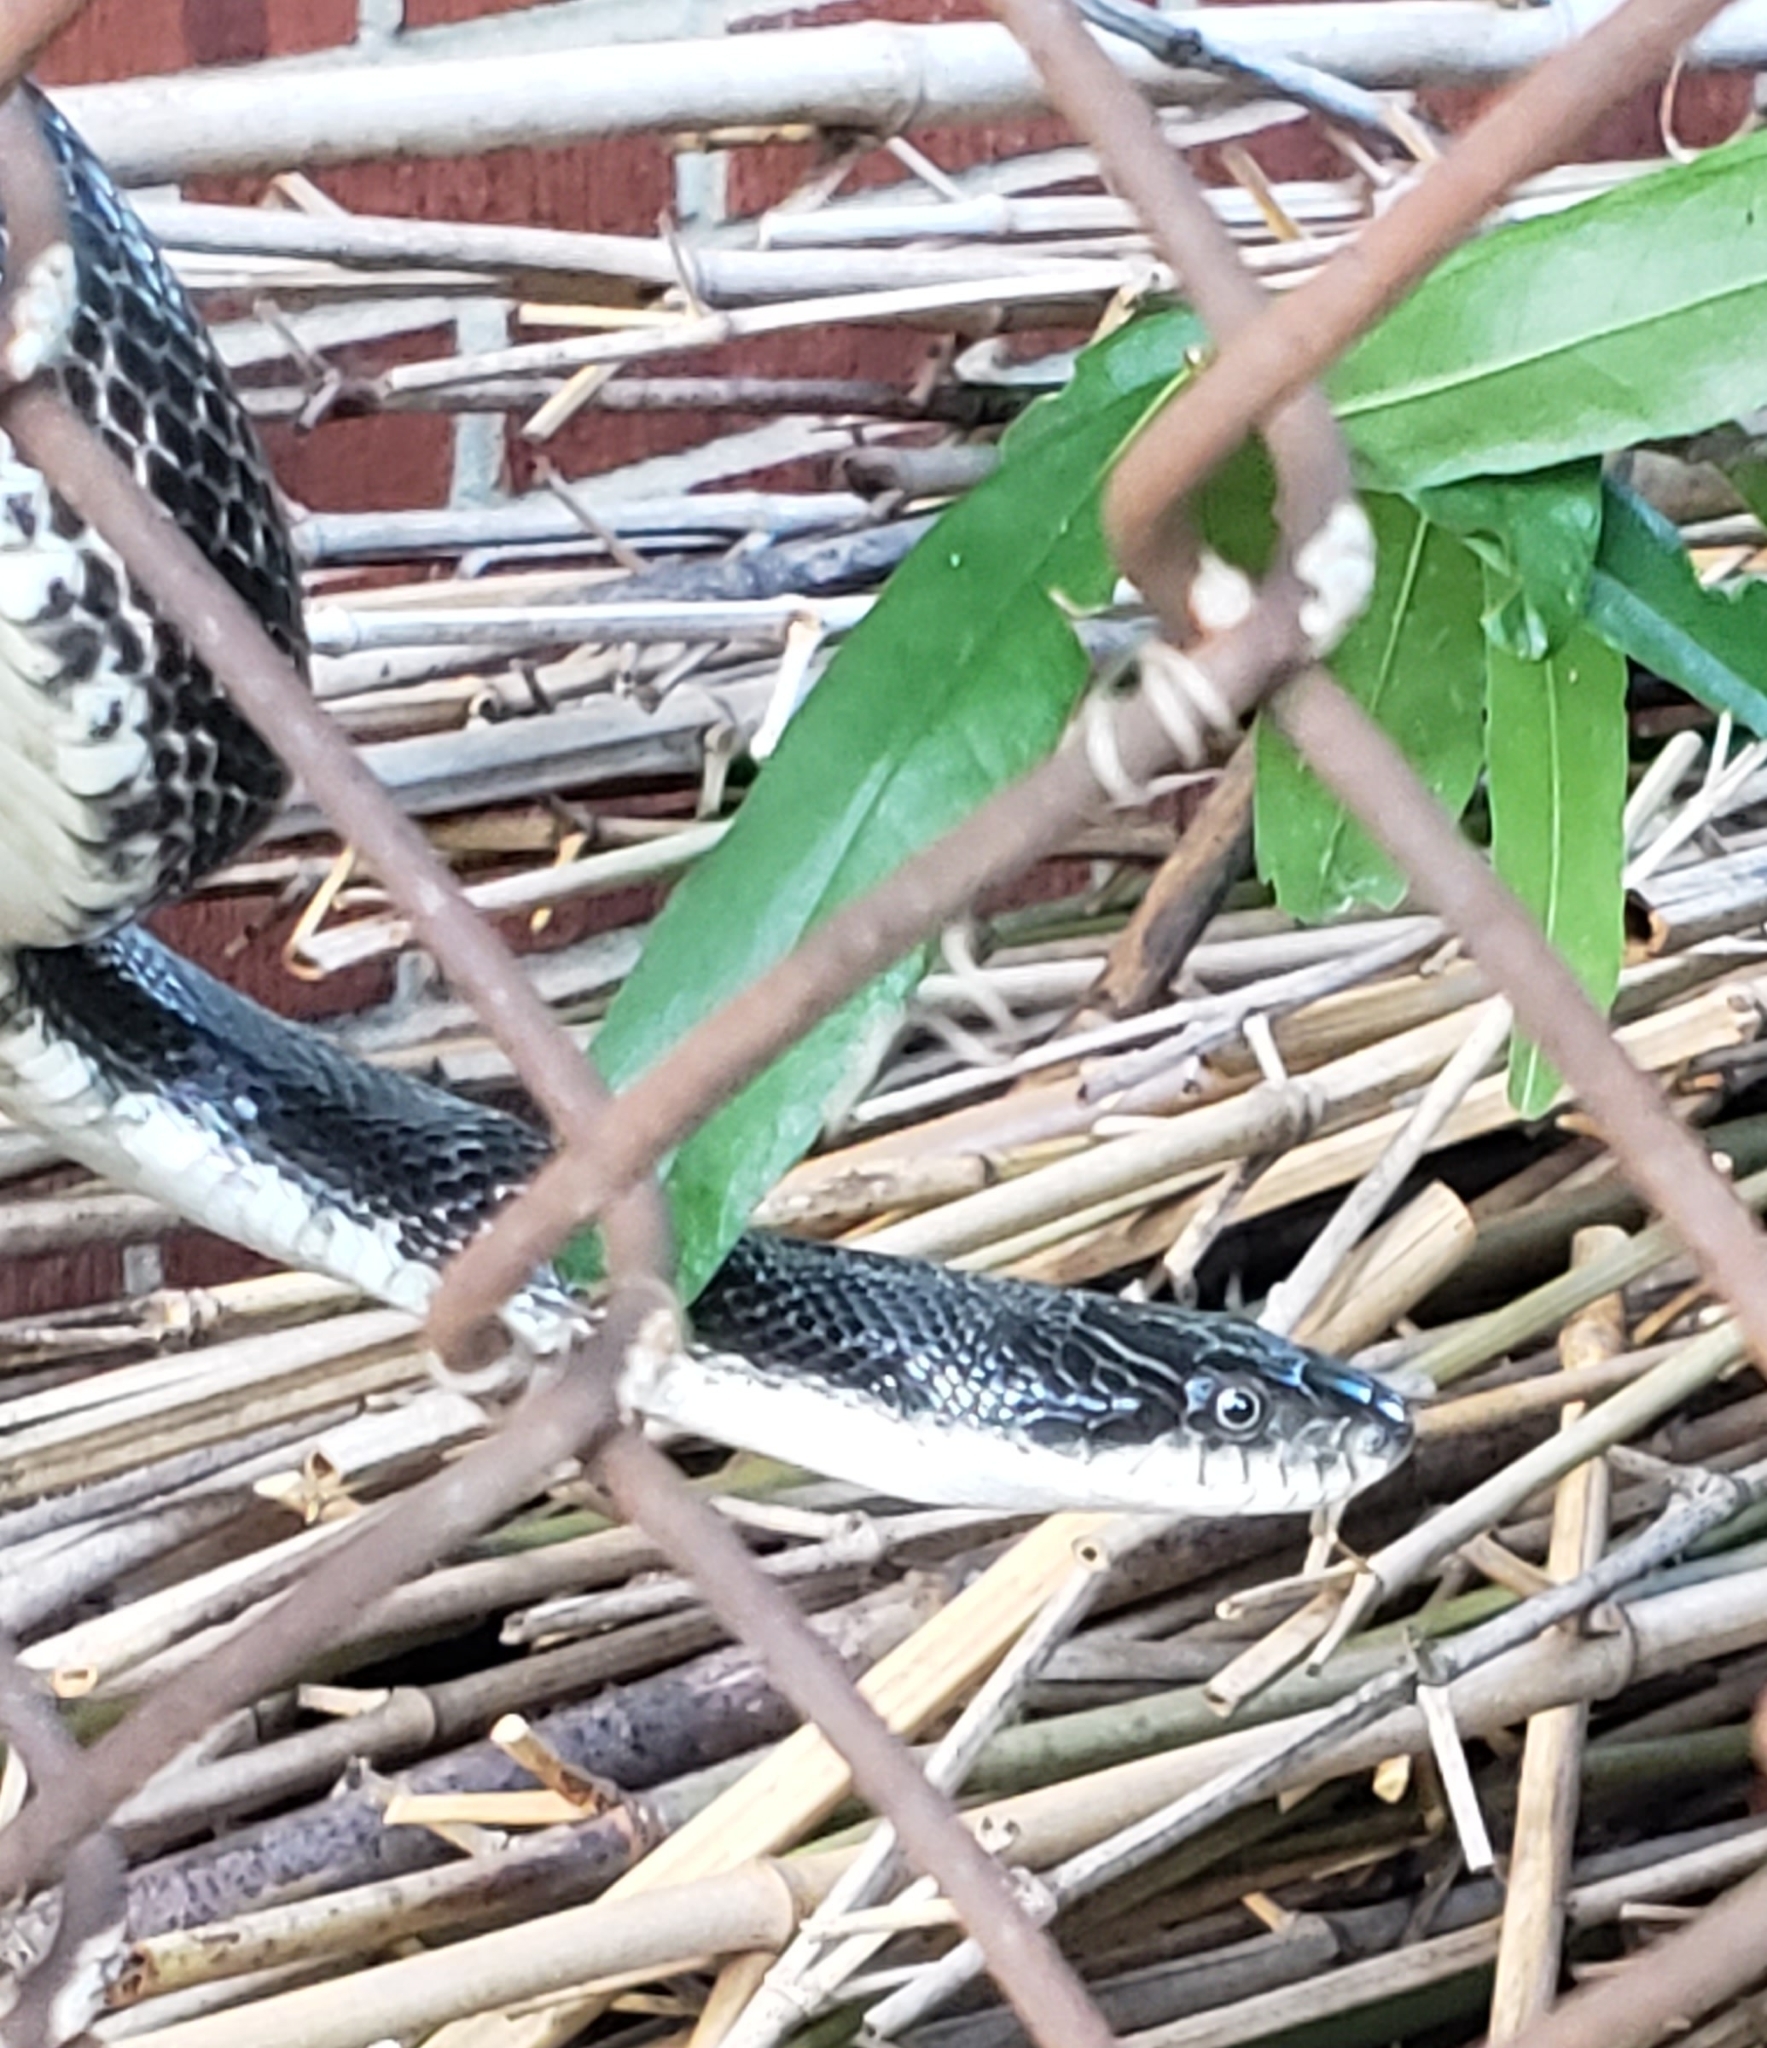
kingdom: Animalia
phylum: Chordata
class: Squamata
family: Colubridae
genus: Pantherophis
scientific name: Pantherophis alleghaniensis
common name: Eastern rat snake
